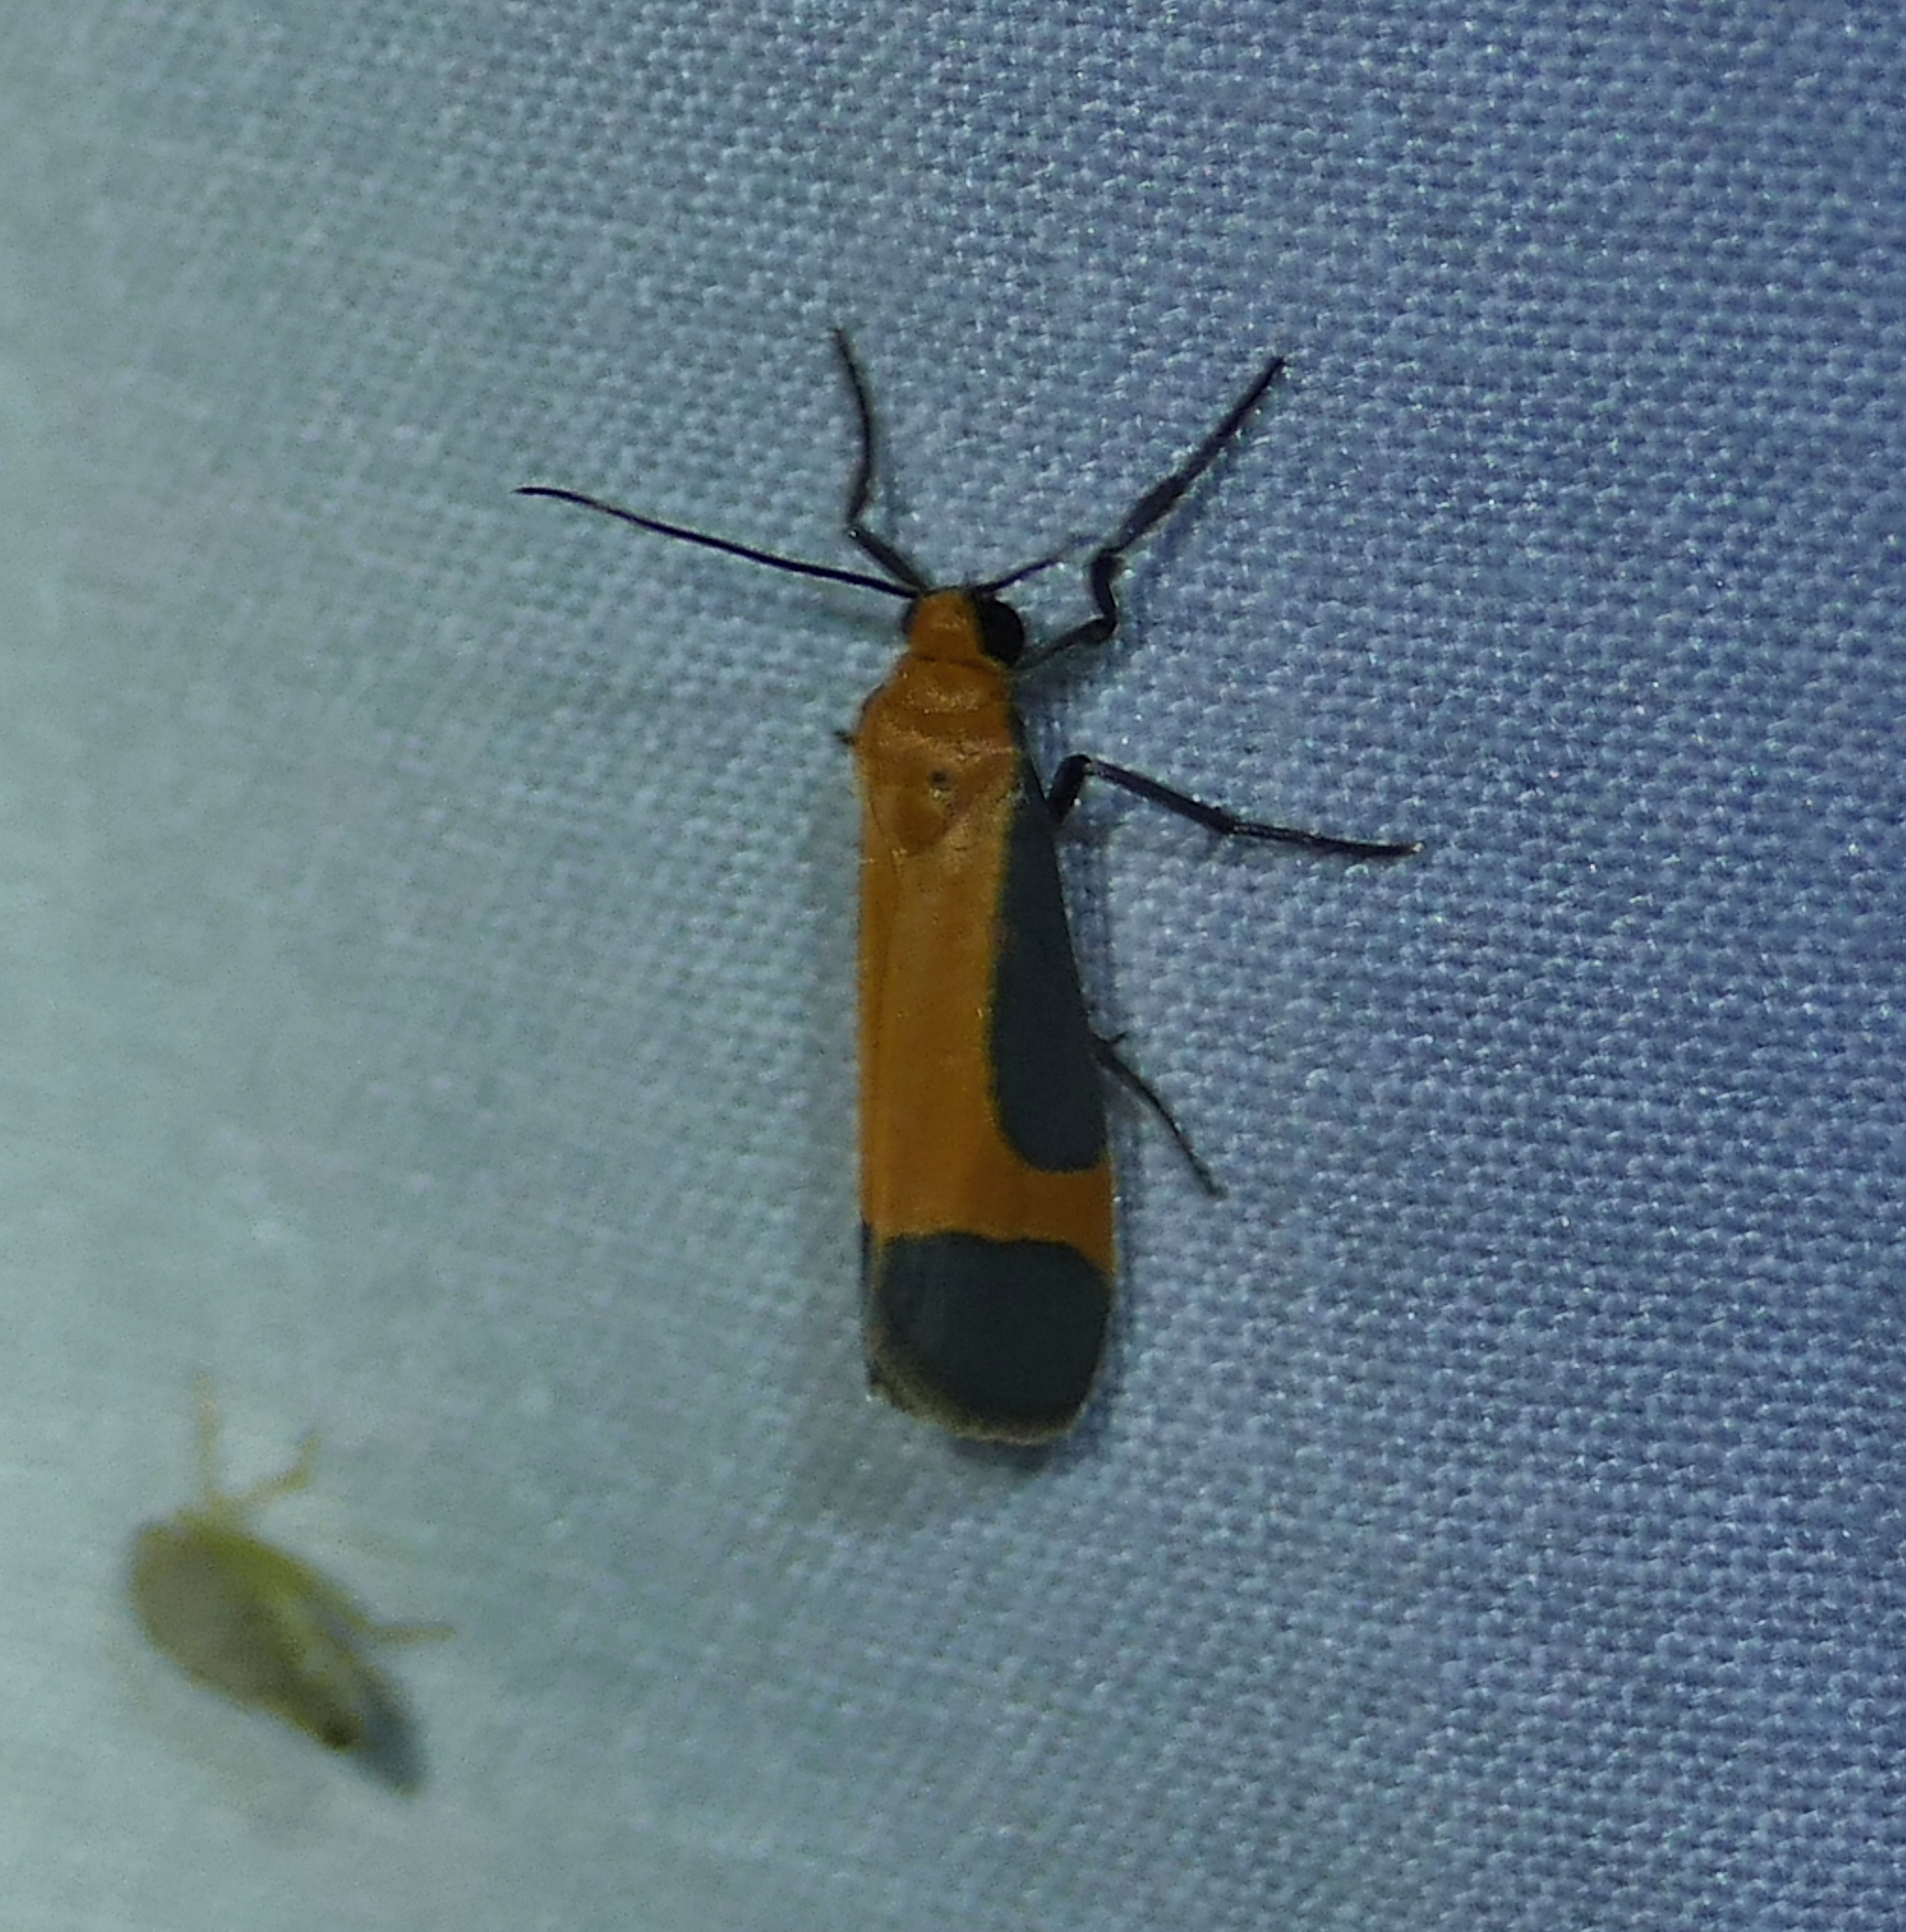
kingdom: Animalia
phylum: Arthropoda
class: Insecta
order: Lepidoptera
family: Erebidae
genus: Cisthene
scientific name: Cisthene angelus
